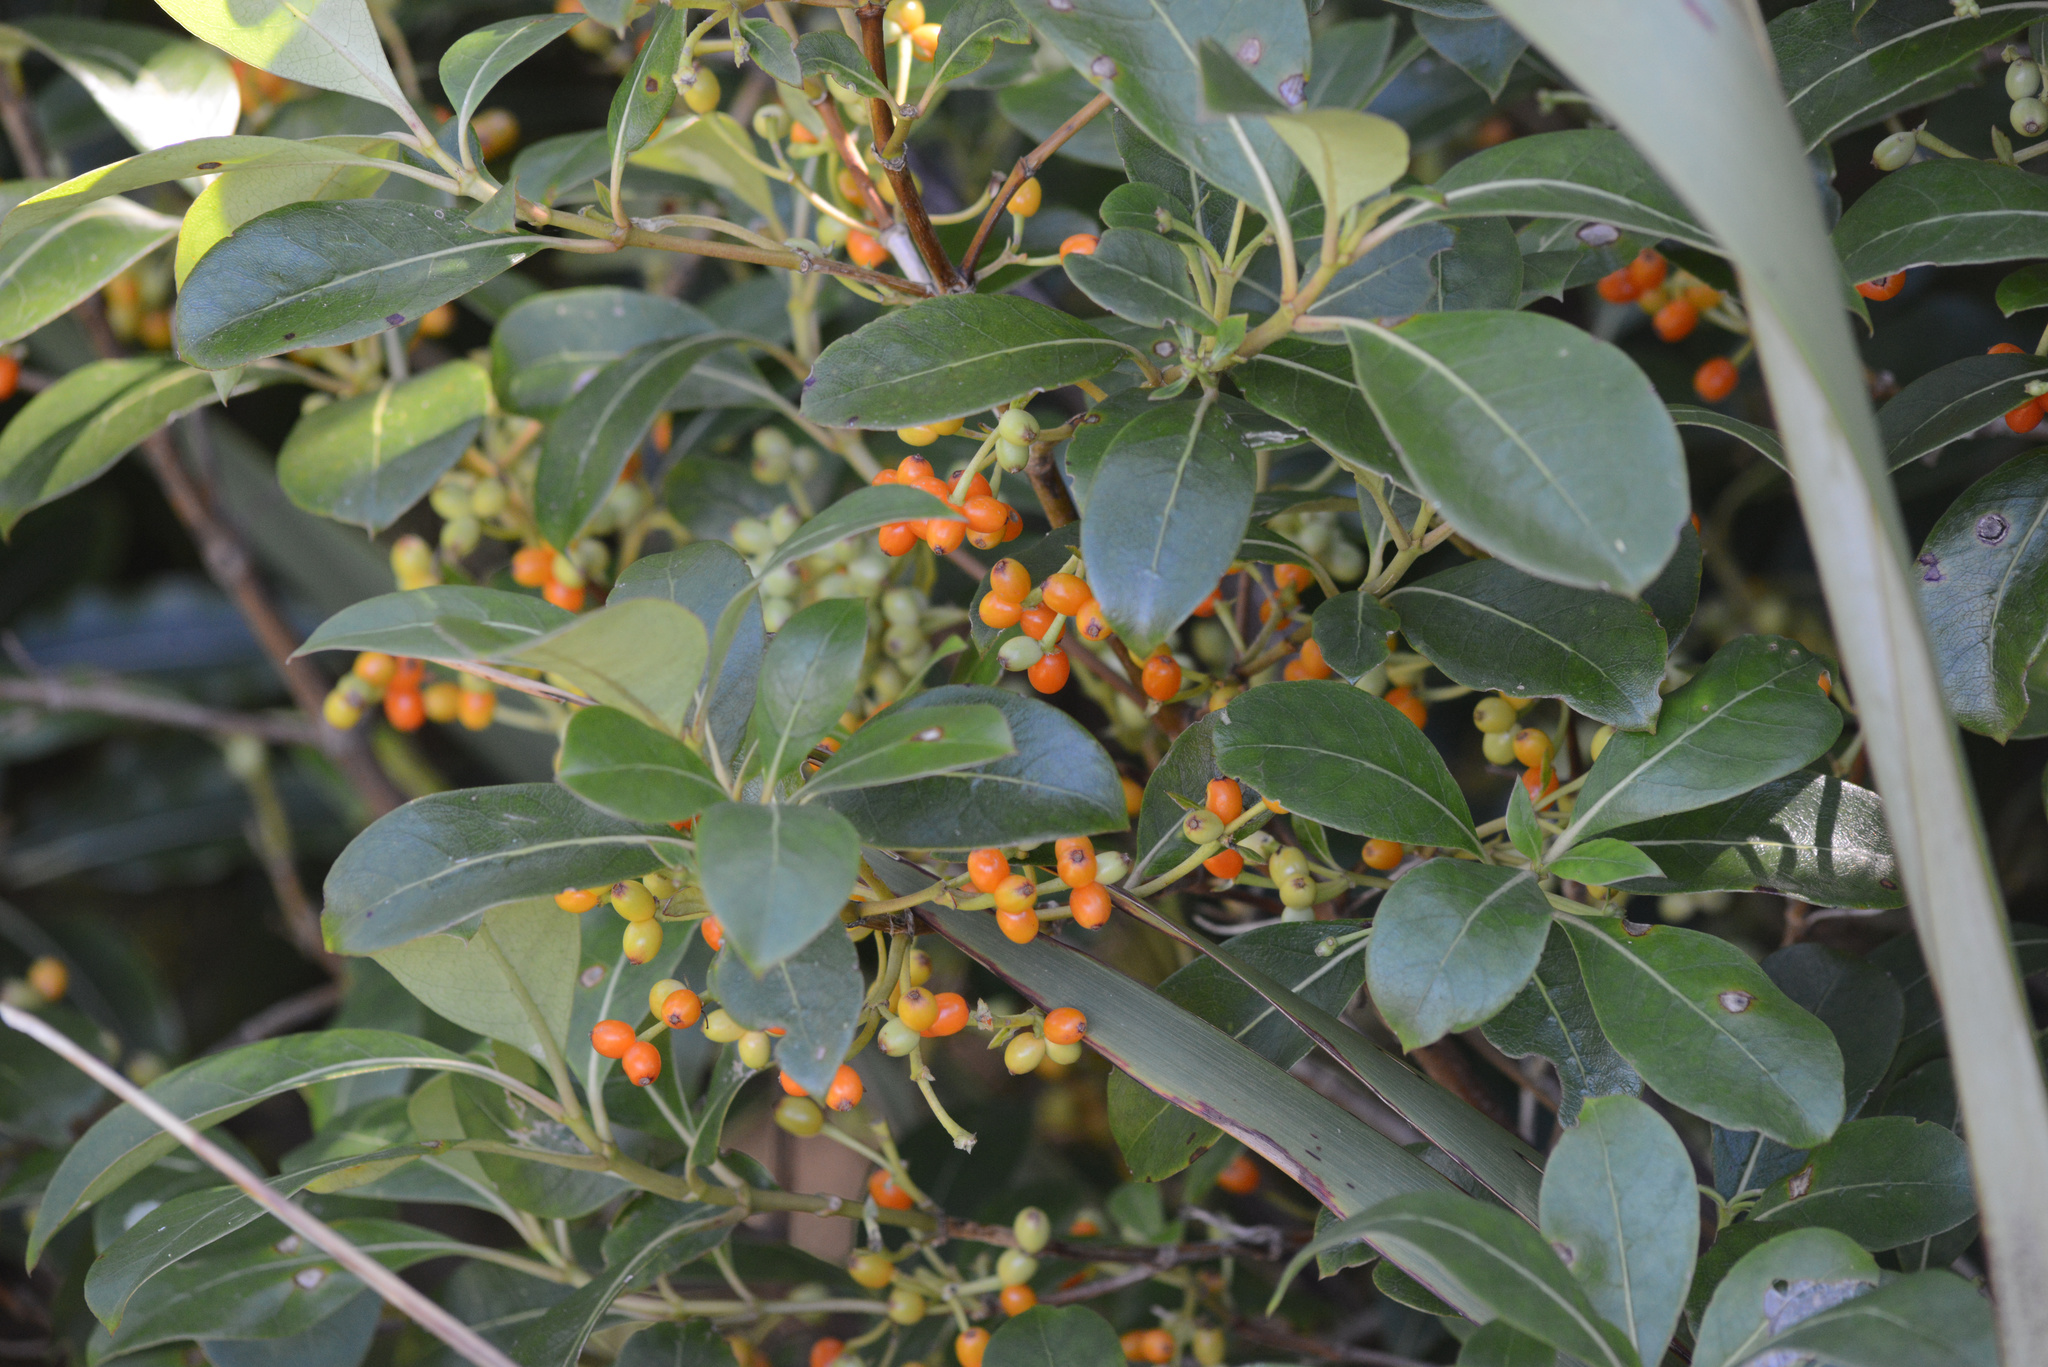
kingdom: Plantae
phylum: Tracheophyta
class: Magnoliopsida
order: Gentianales
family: Rubiaceae
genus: Coprosma
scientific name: Coprosma lucida
